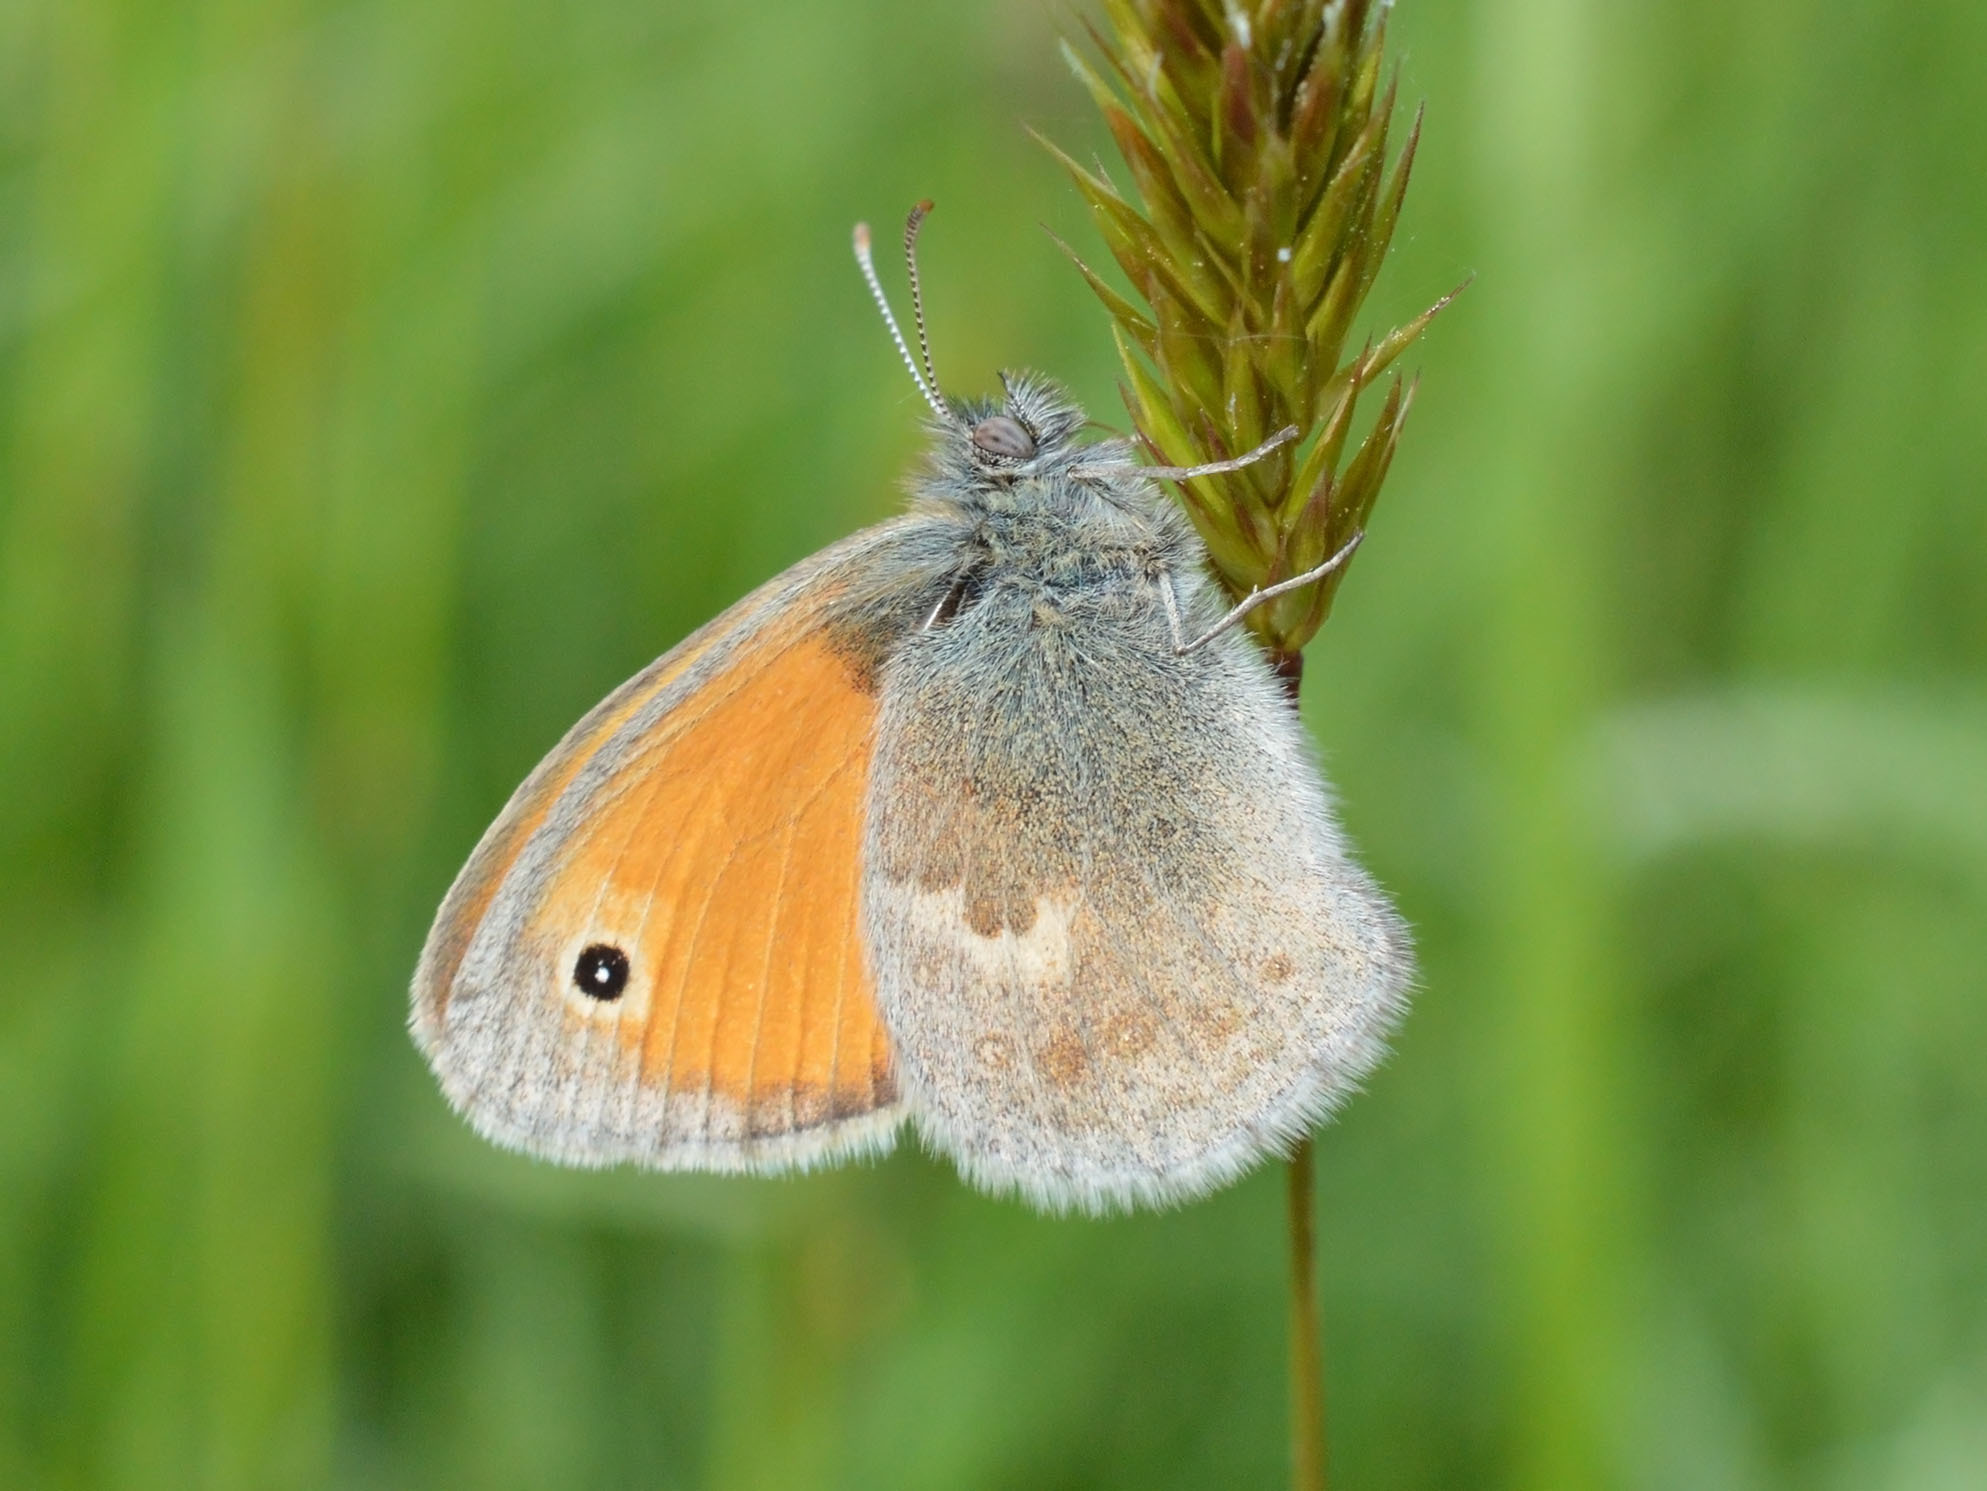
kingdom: Animalia
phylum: Arthropoda
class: Insecta
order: Lepidoptera
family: Nymphalidae
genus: Coenonympha
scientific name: Coenonympha pamphilus
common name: Small heath
